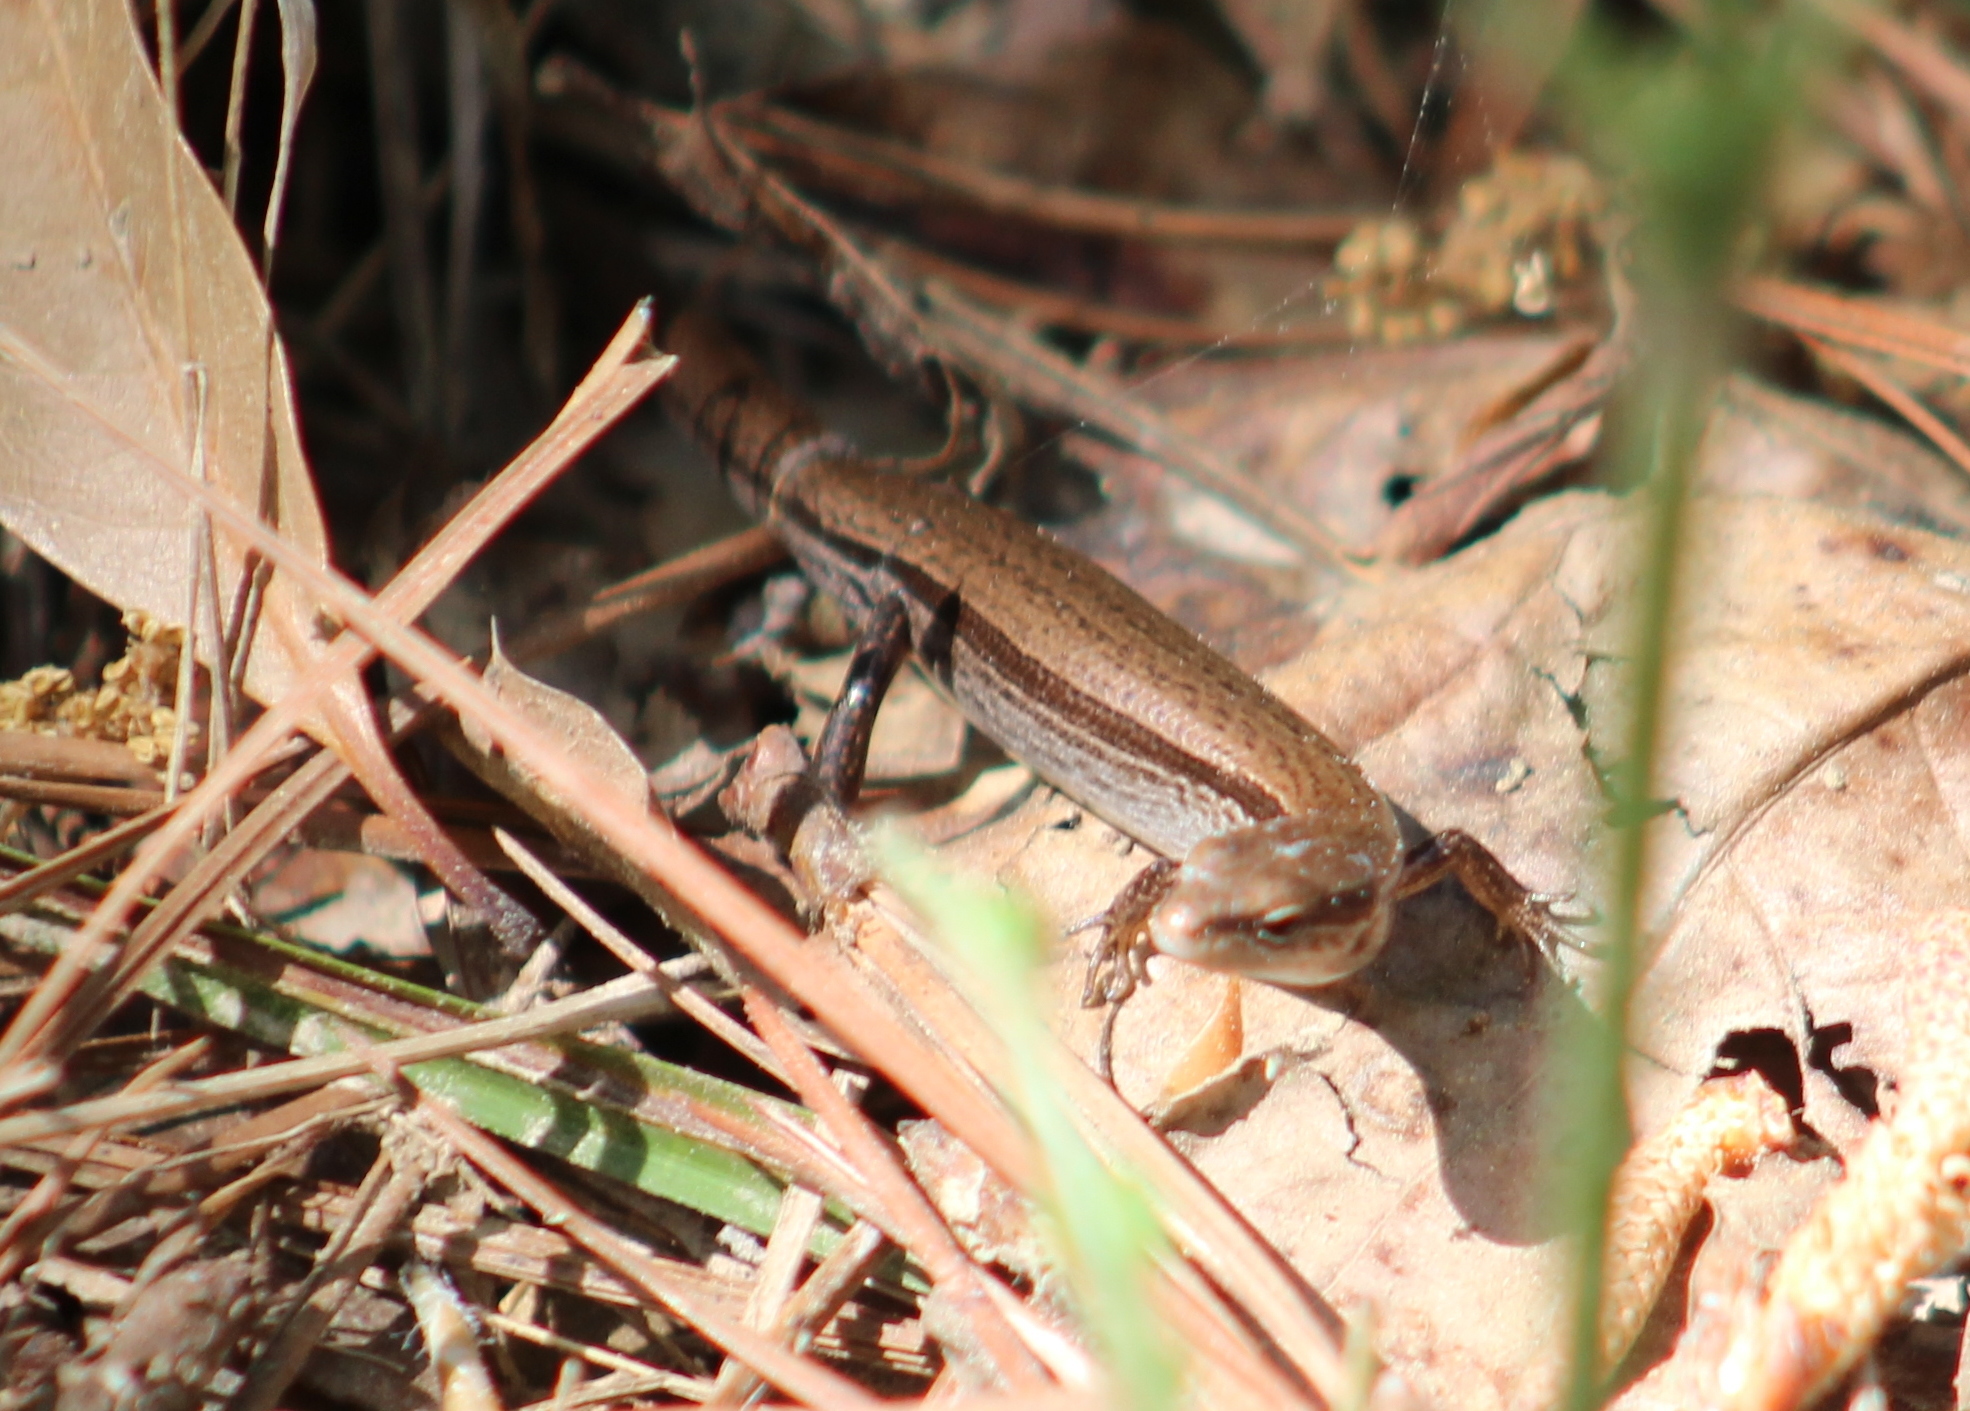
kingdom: Animalia
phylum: Chordata
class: Squamata
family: Scincidae
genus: Scincella
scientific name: Scincella lateralis
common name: Ground skink
